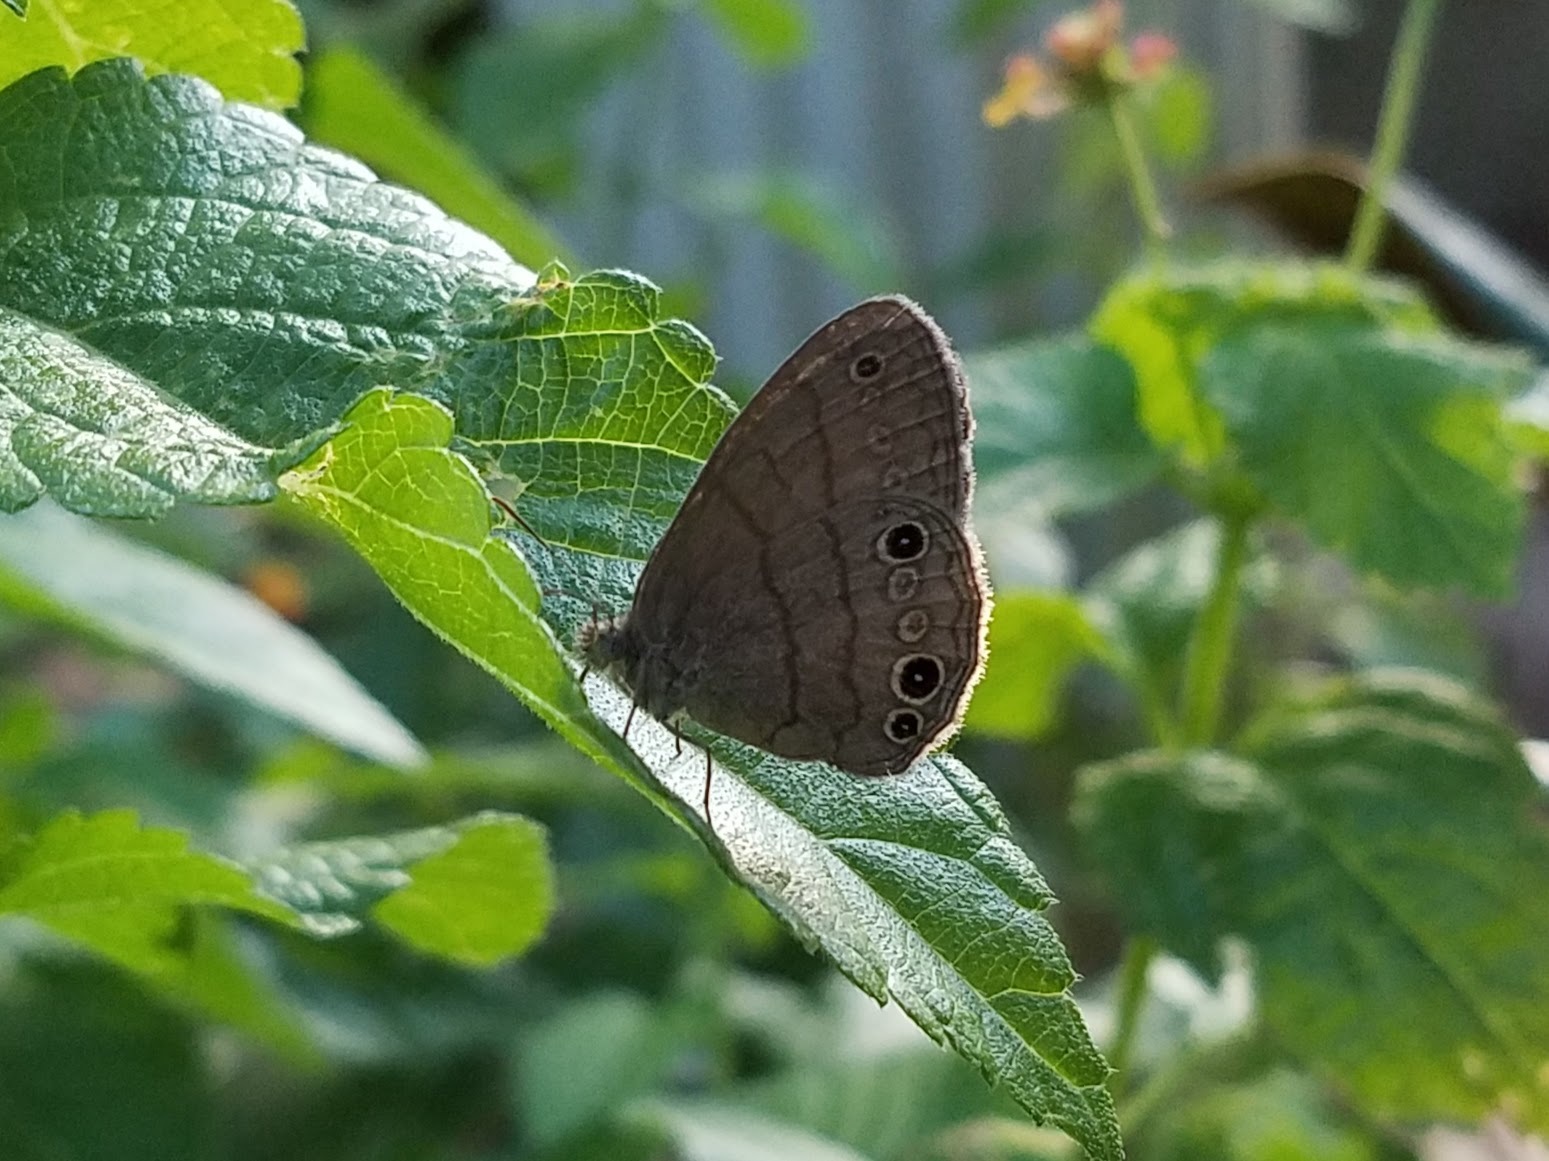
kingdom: Animalia
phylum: Arthropoda
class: Insecta
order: Lepidoptera
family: Nymphalidae
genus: Hermeuptychia
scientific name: Hermeuptychia
